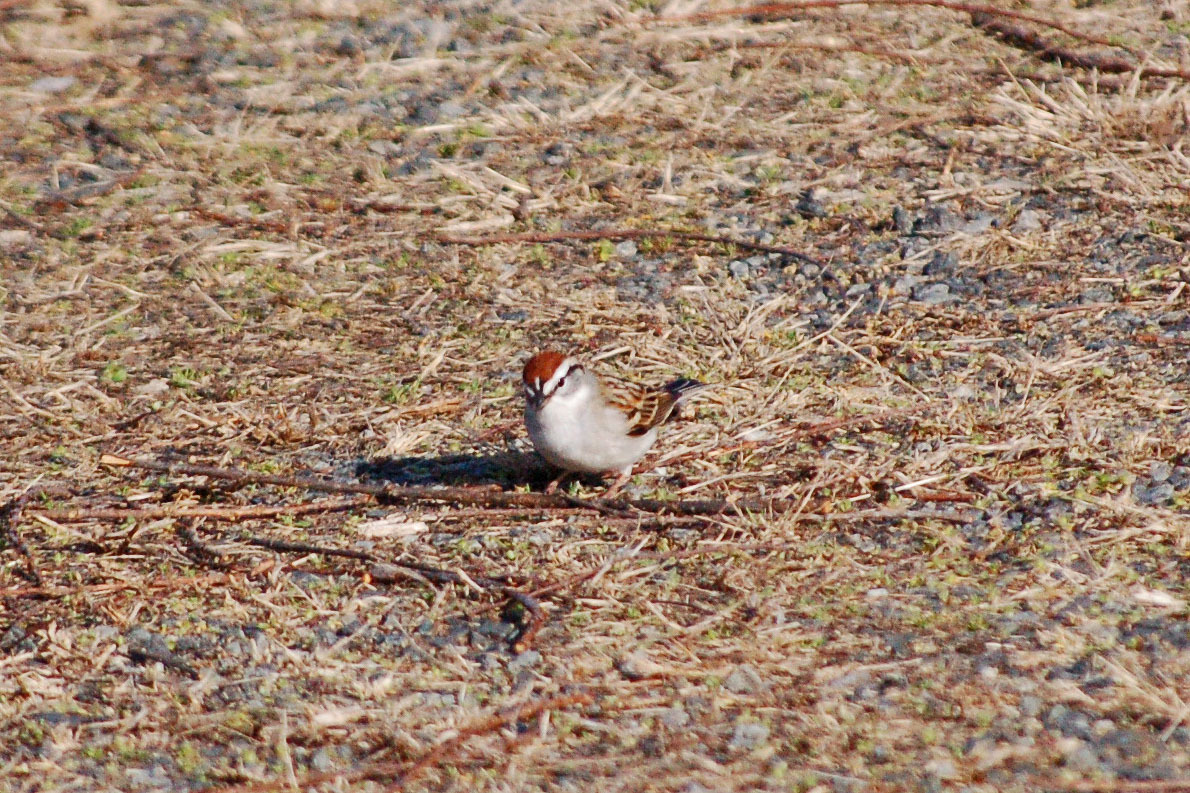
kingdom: Animalia
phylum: Chordata
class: Aves
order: Passeriformes
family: Passerellidae
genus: Spizella
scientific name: Spizella passerina
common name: Chipping sparrow
